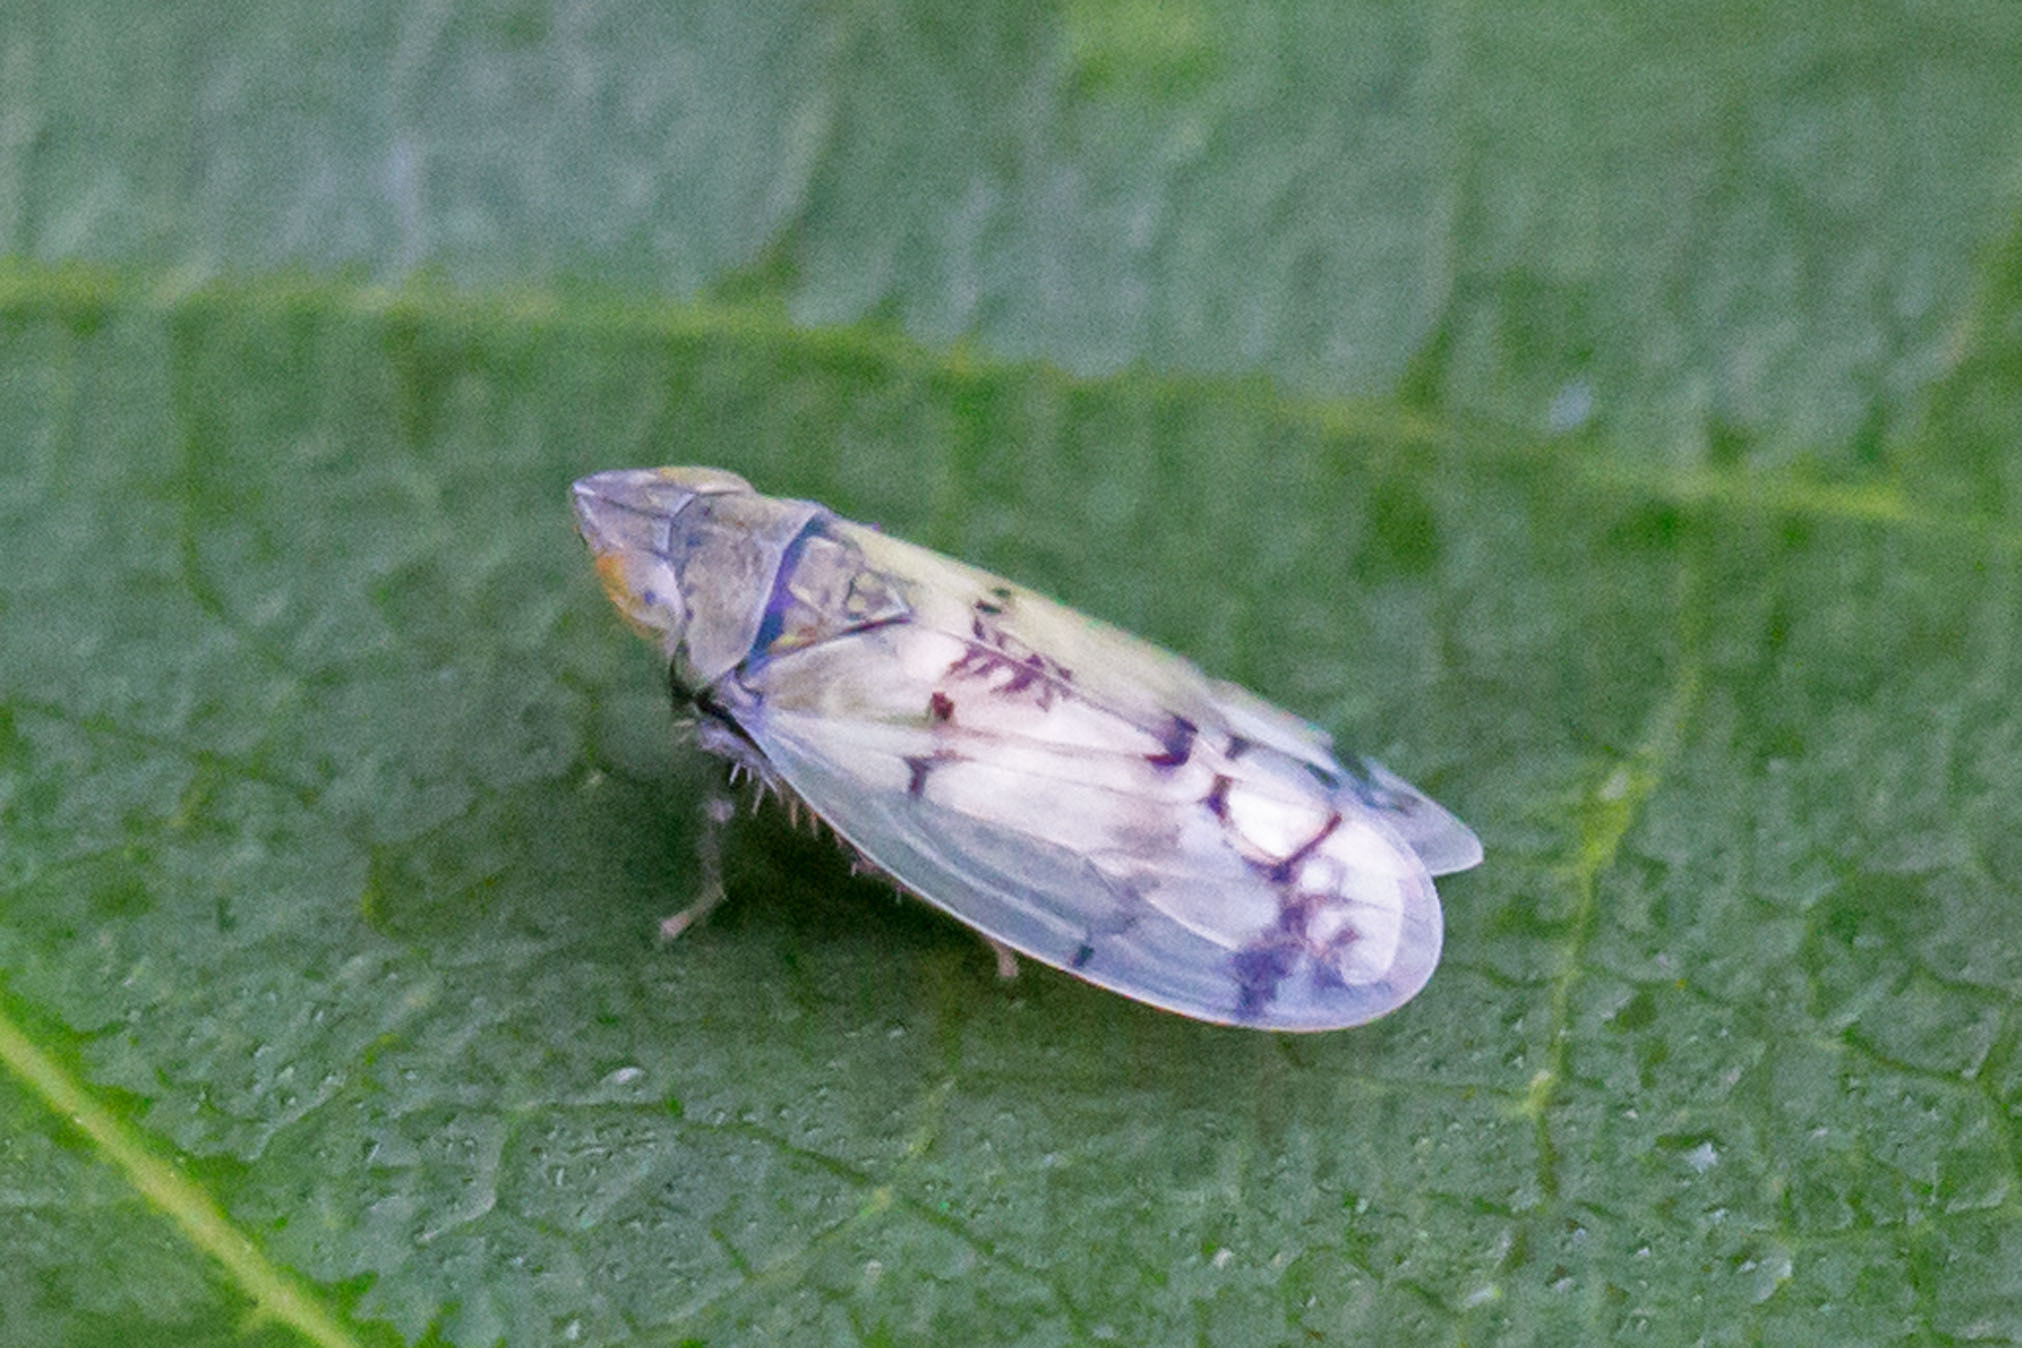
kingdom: Animalia
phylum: Arthropoda
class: Insecta
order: Hemiptera
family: Cicadellidae
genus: Japananus
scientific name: Japananus hyalinus
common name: The japanese maple leafhopper
